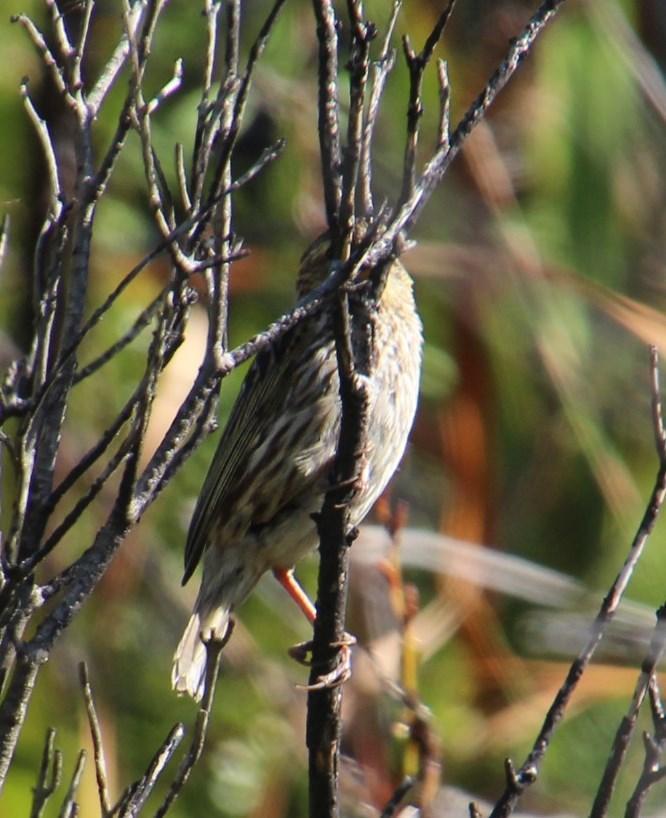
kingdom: Animalia
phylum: Chordata
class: Aves
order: Passeriformes
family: Ploceidae
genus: Euplectes
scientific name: Euplectes capensis
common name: Yellow bishop
